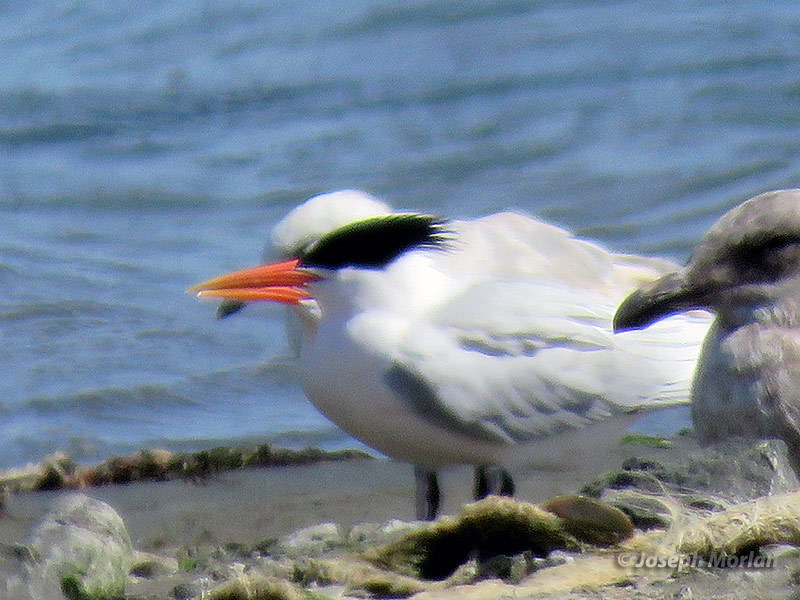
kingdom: Animalia
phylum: Chordata
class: Aves
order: Charadriiformes
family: Laridae
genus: Thalasseus
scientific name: Thalasseus elegans
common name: Elegant tern
